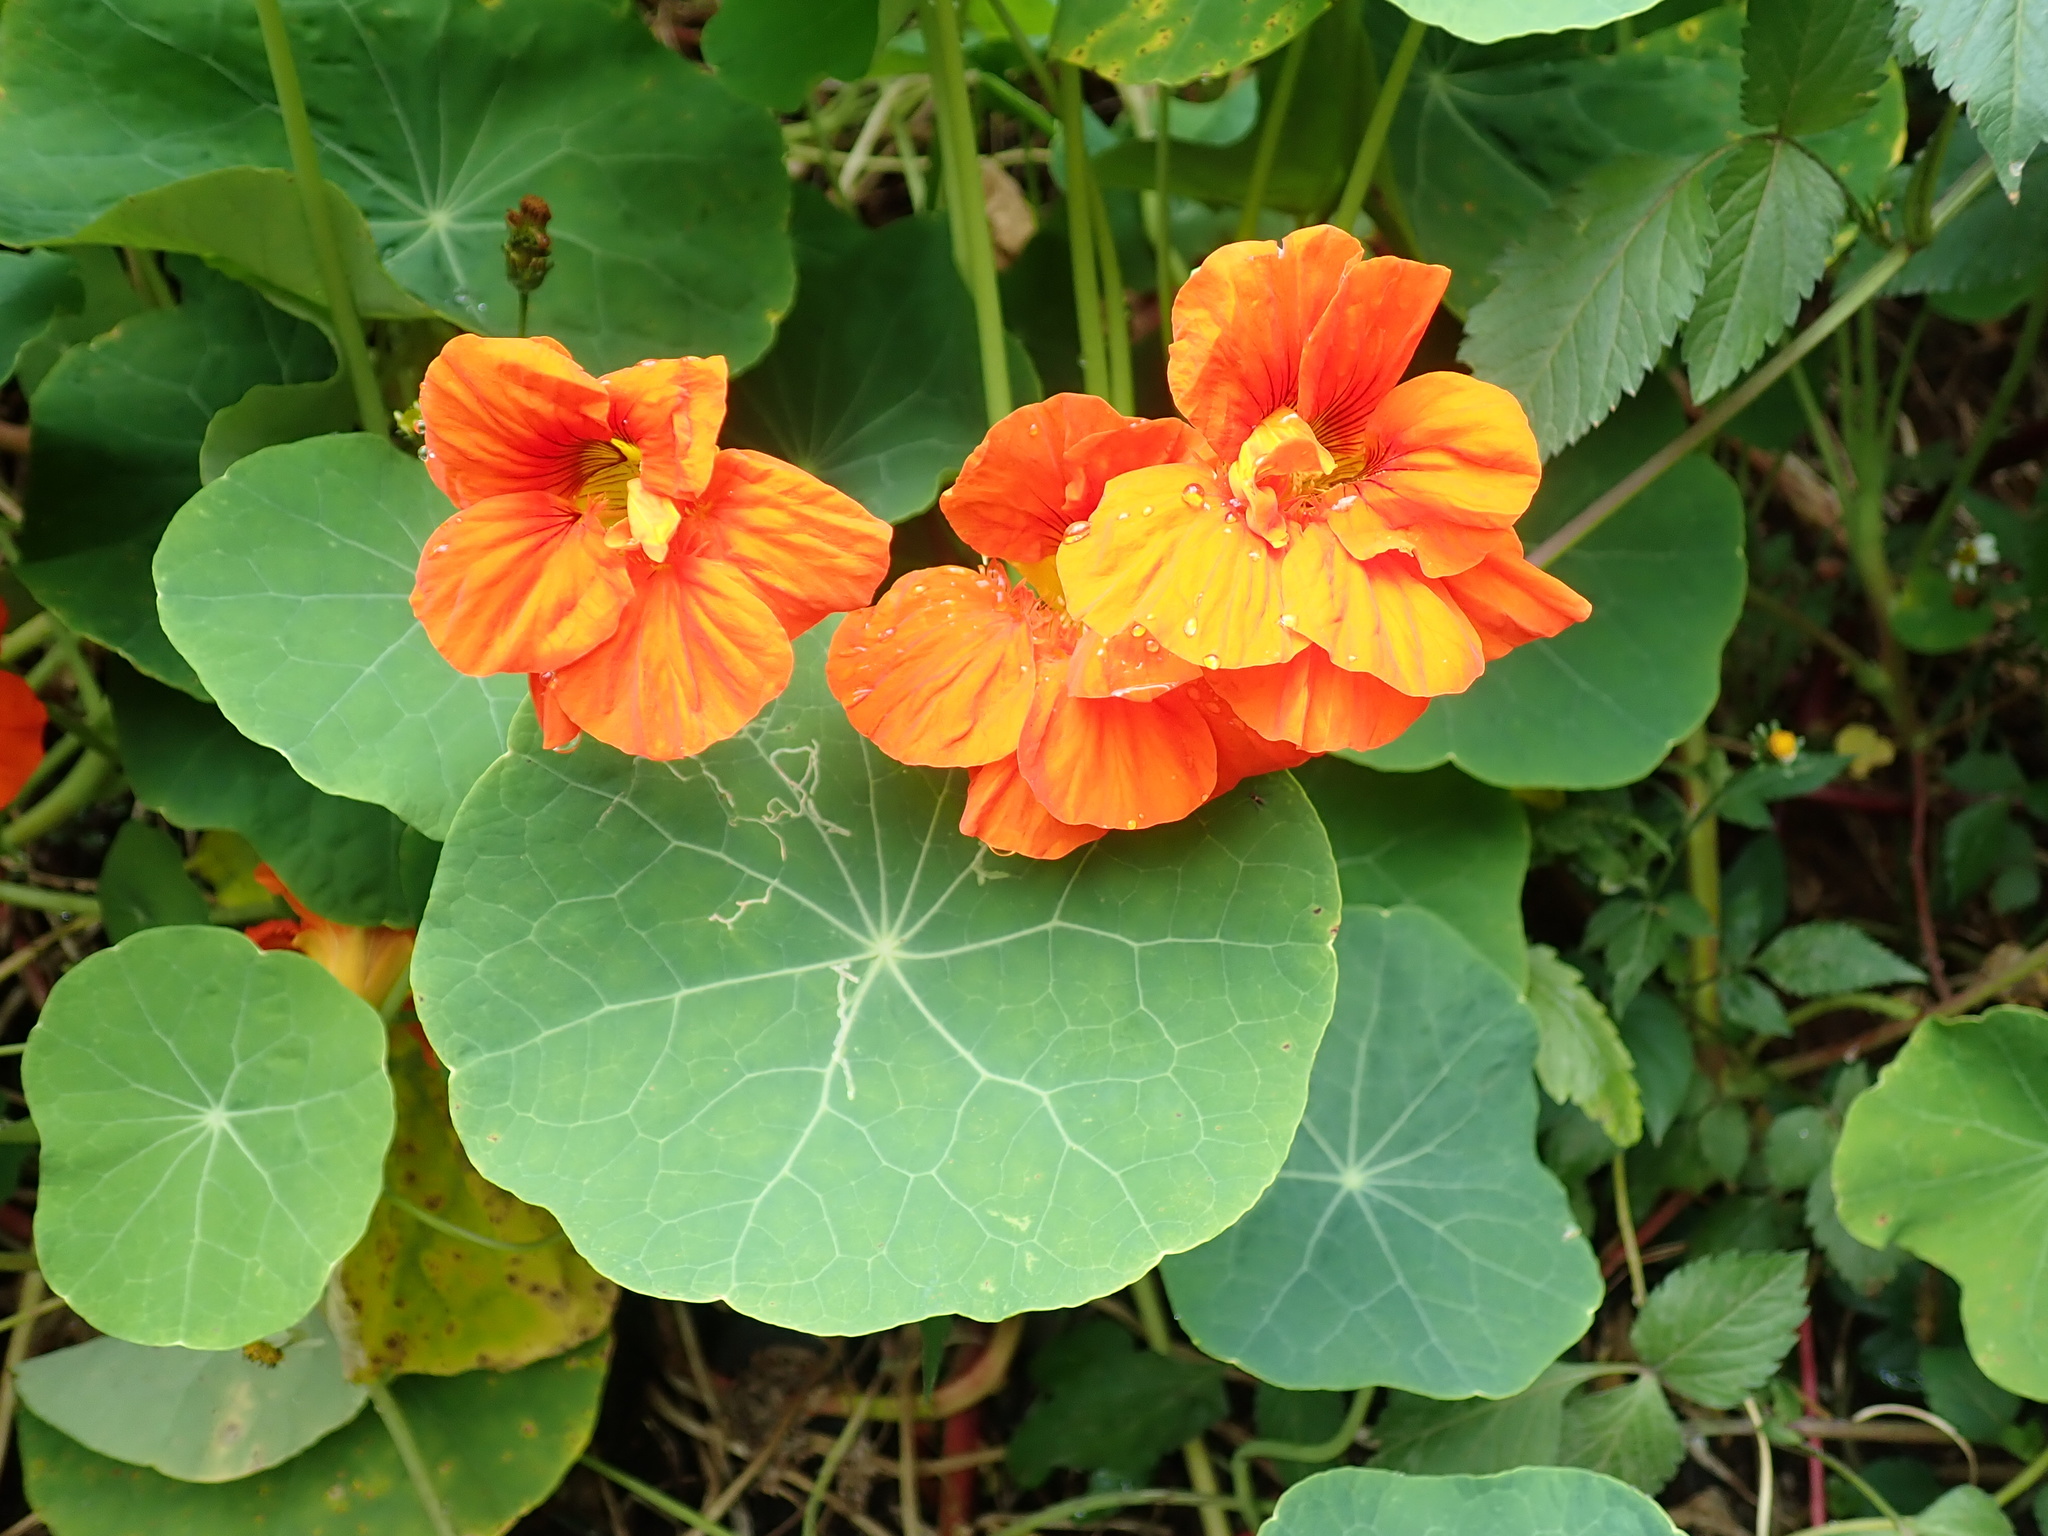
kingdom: Plantae
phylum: Tracheophyta
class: Magnoliopsida
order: Brassicales
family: Tropaeolaceae
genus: Tropaeolum
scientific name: Tropaeolum majus
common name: Nasturtium
